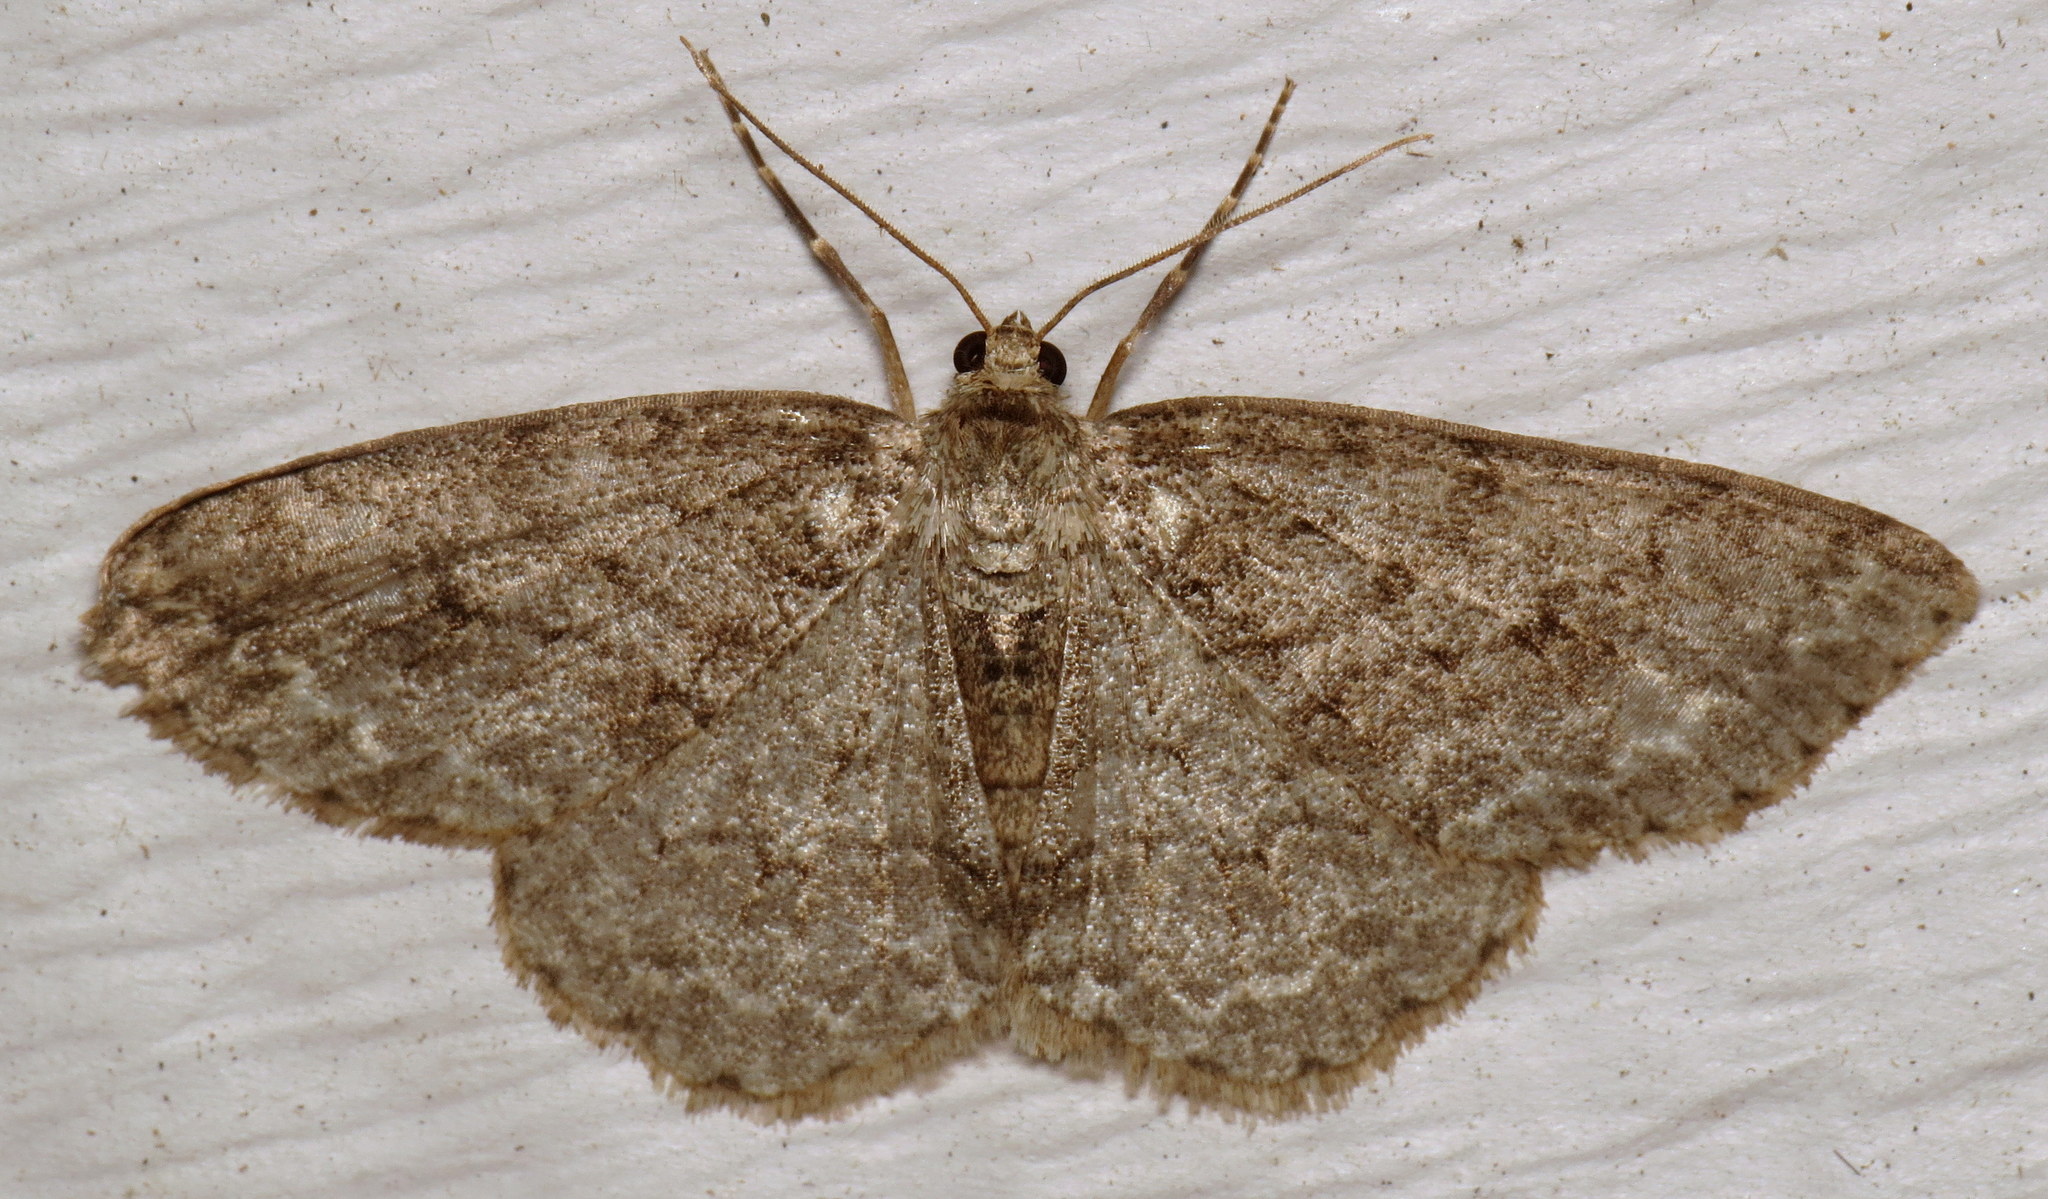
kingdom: Animalia
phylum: Arthropoda
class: Insecta
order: Lepidoptera
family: Geometridae
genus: Ectropis
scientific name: Ectropis crepuscularia
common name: Engrailed
